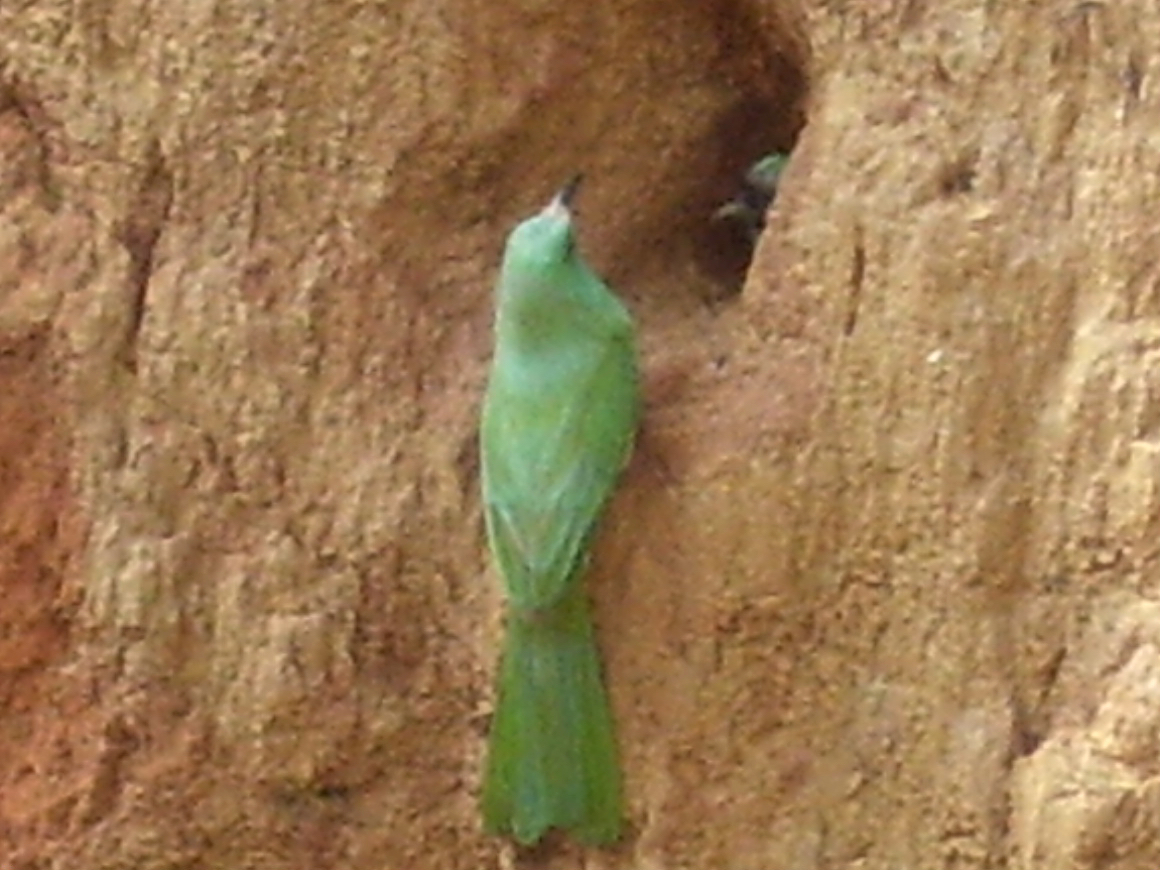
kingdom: Animalia
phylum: Chordata
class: Aves
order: Coraciiformes
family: Meropidae
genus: Nyctyornis
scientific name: Nyctyornis athertoni
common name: Blue-bearded bee-eater
